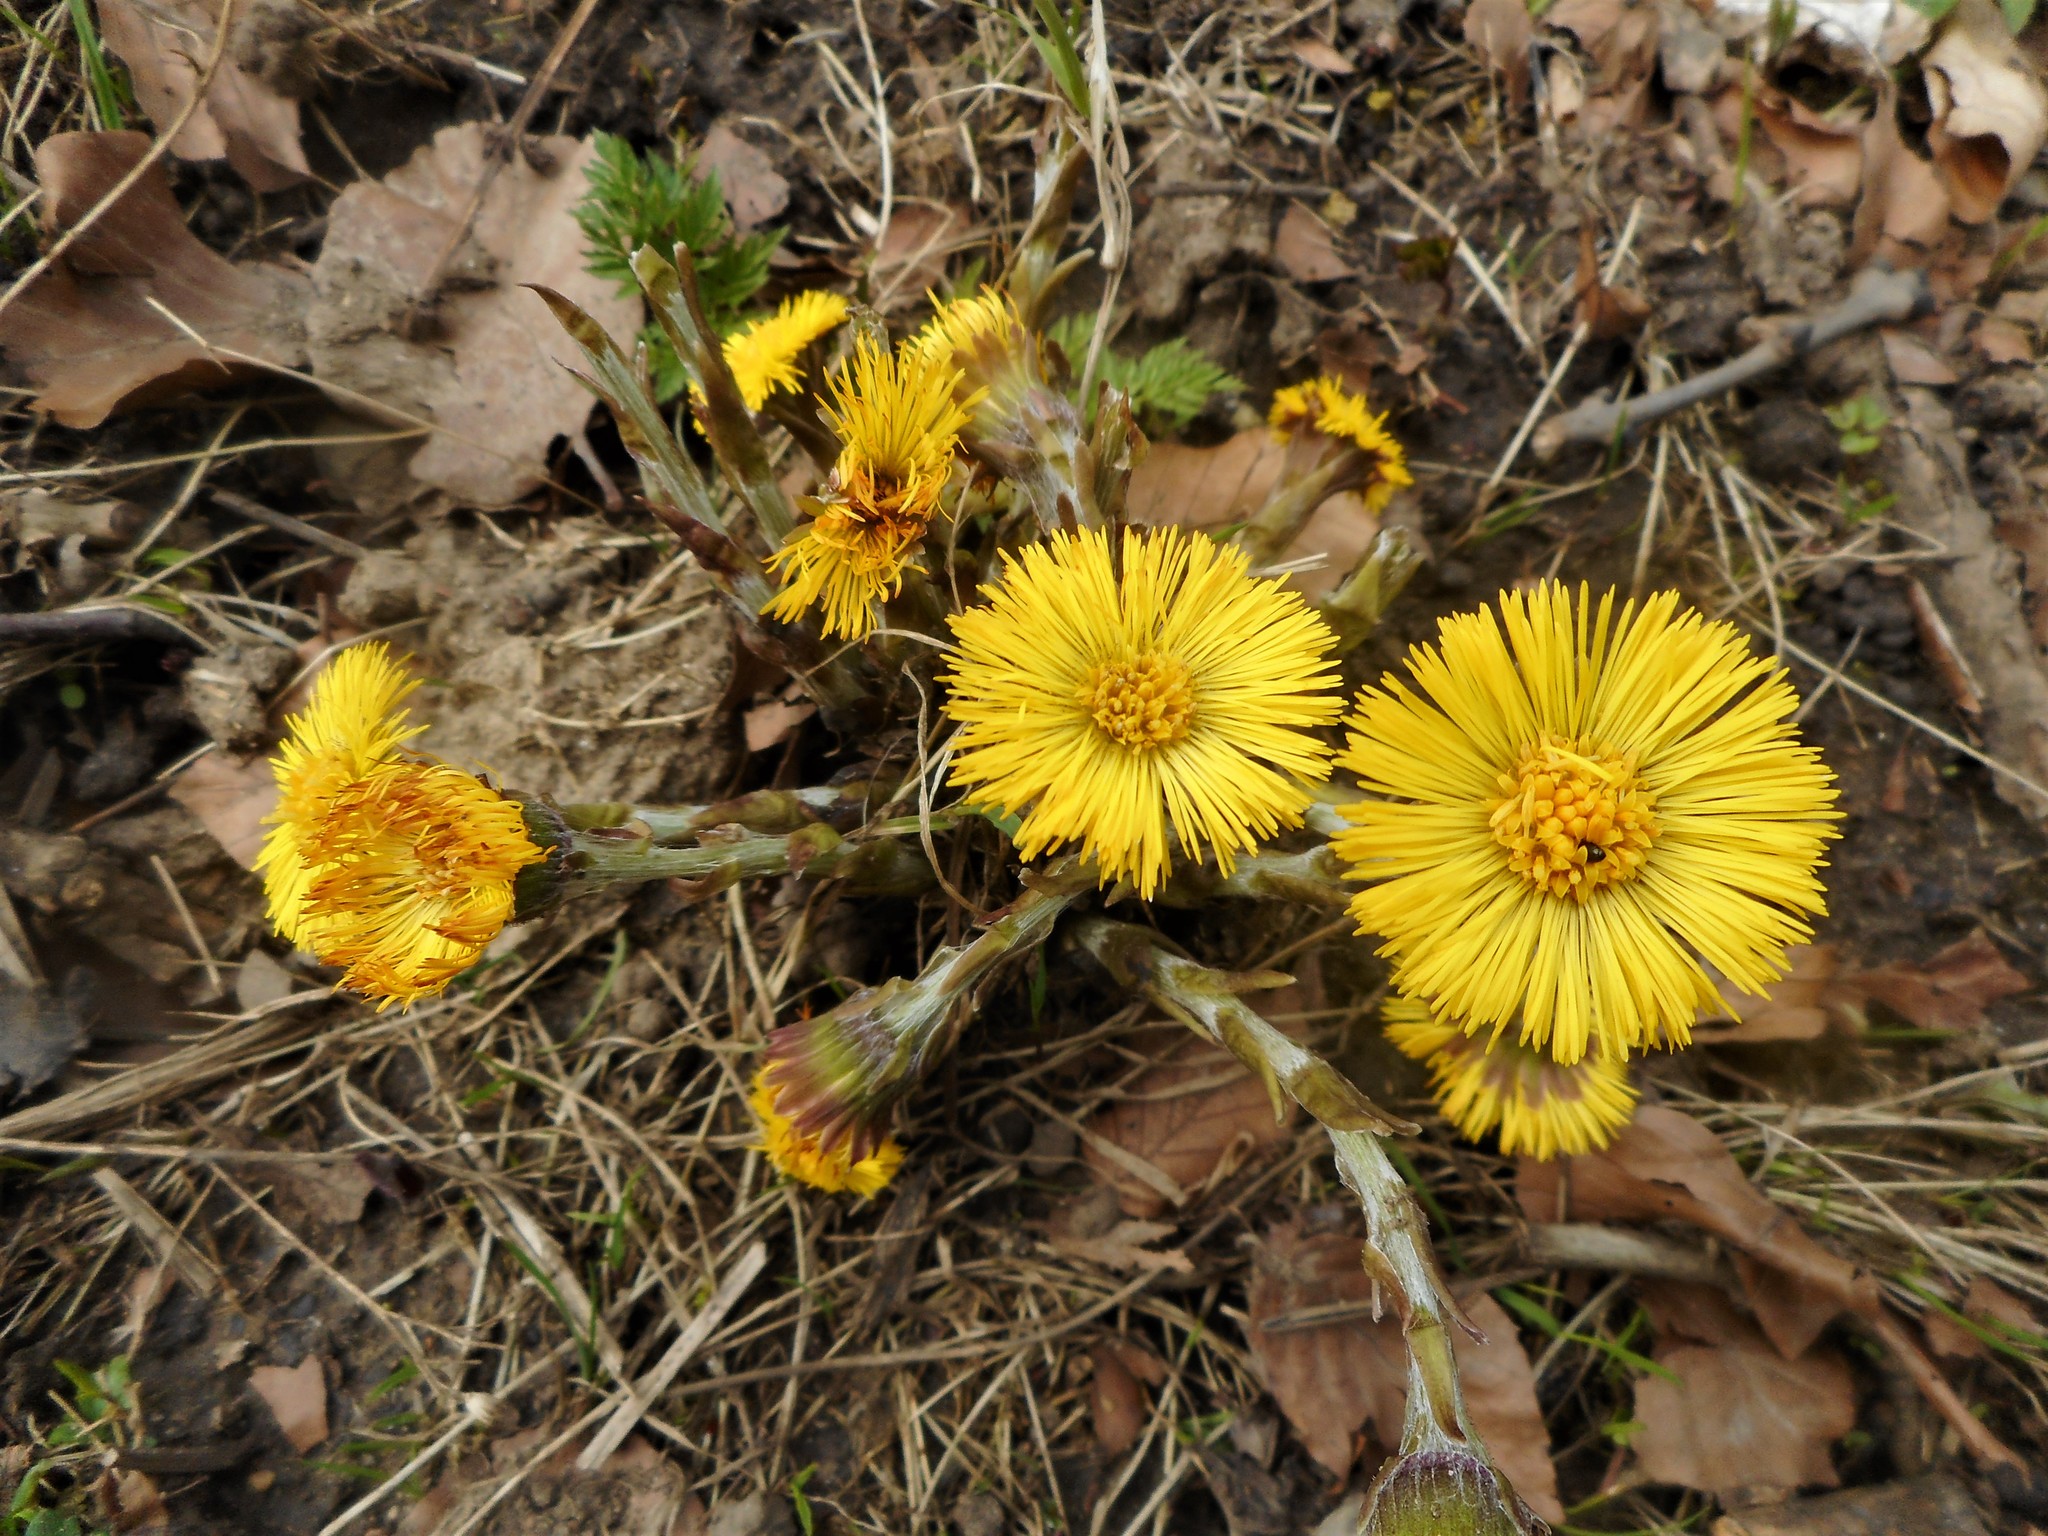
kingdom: Plantae
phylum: Tracheophyta
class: Magnoliopsida
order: Asterales
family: Asteraceae
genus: Tussilago
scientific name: Tussilago farfara
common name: Coltsfoot
